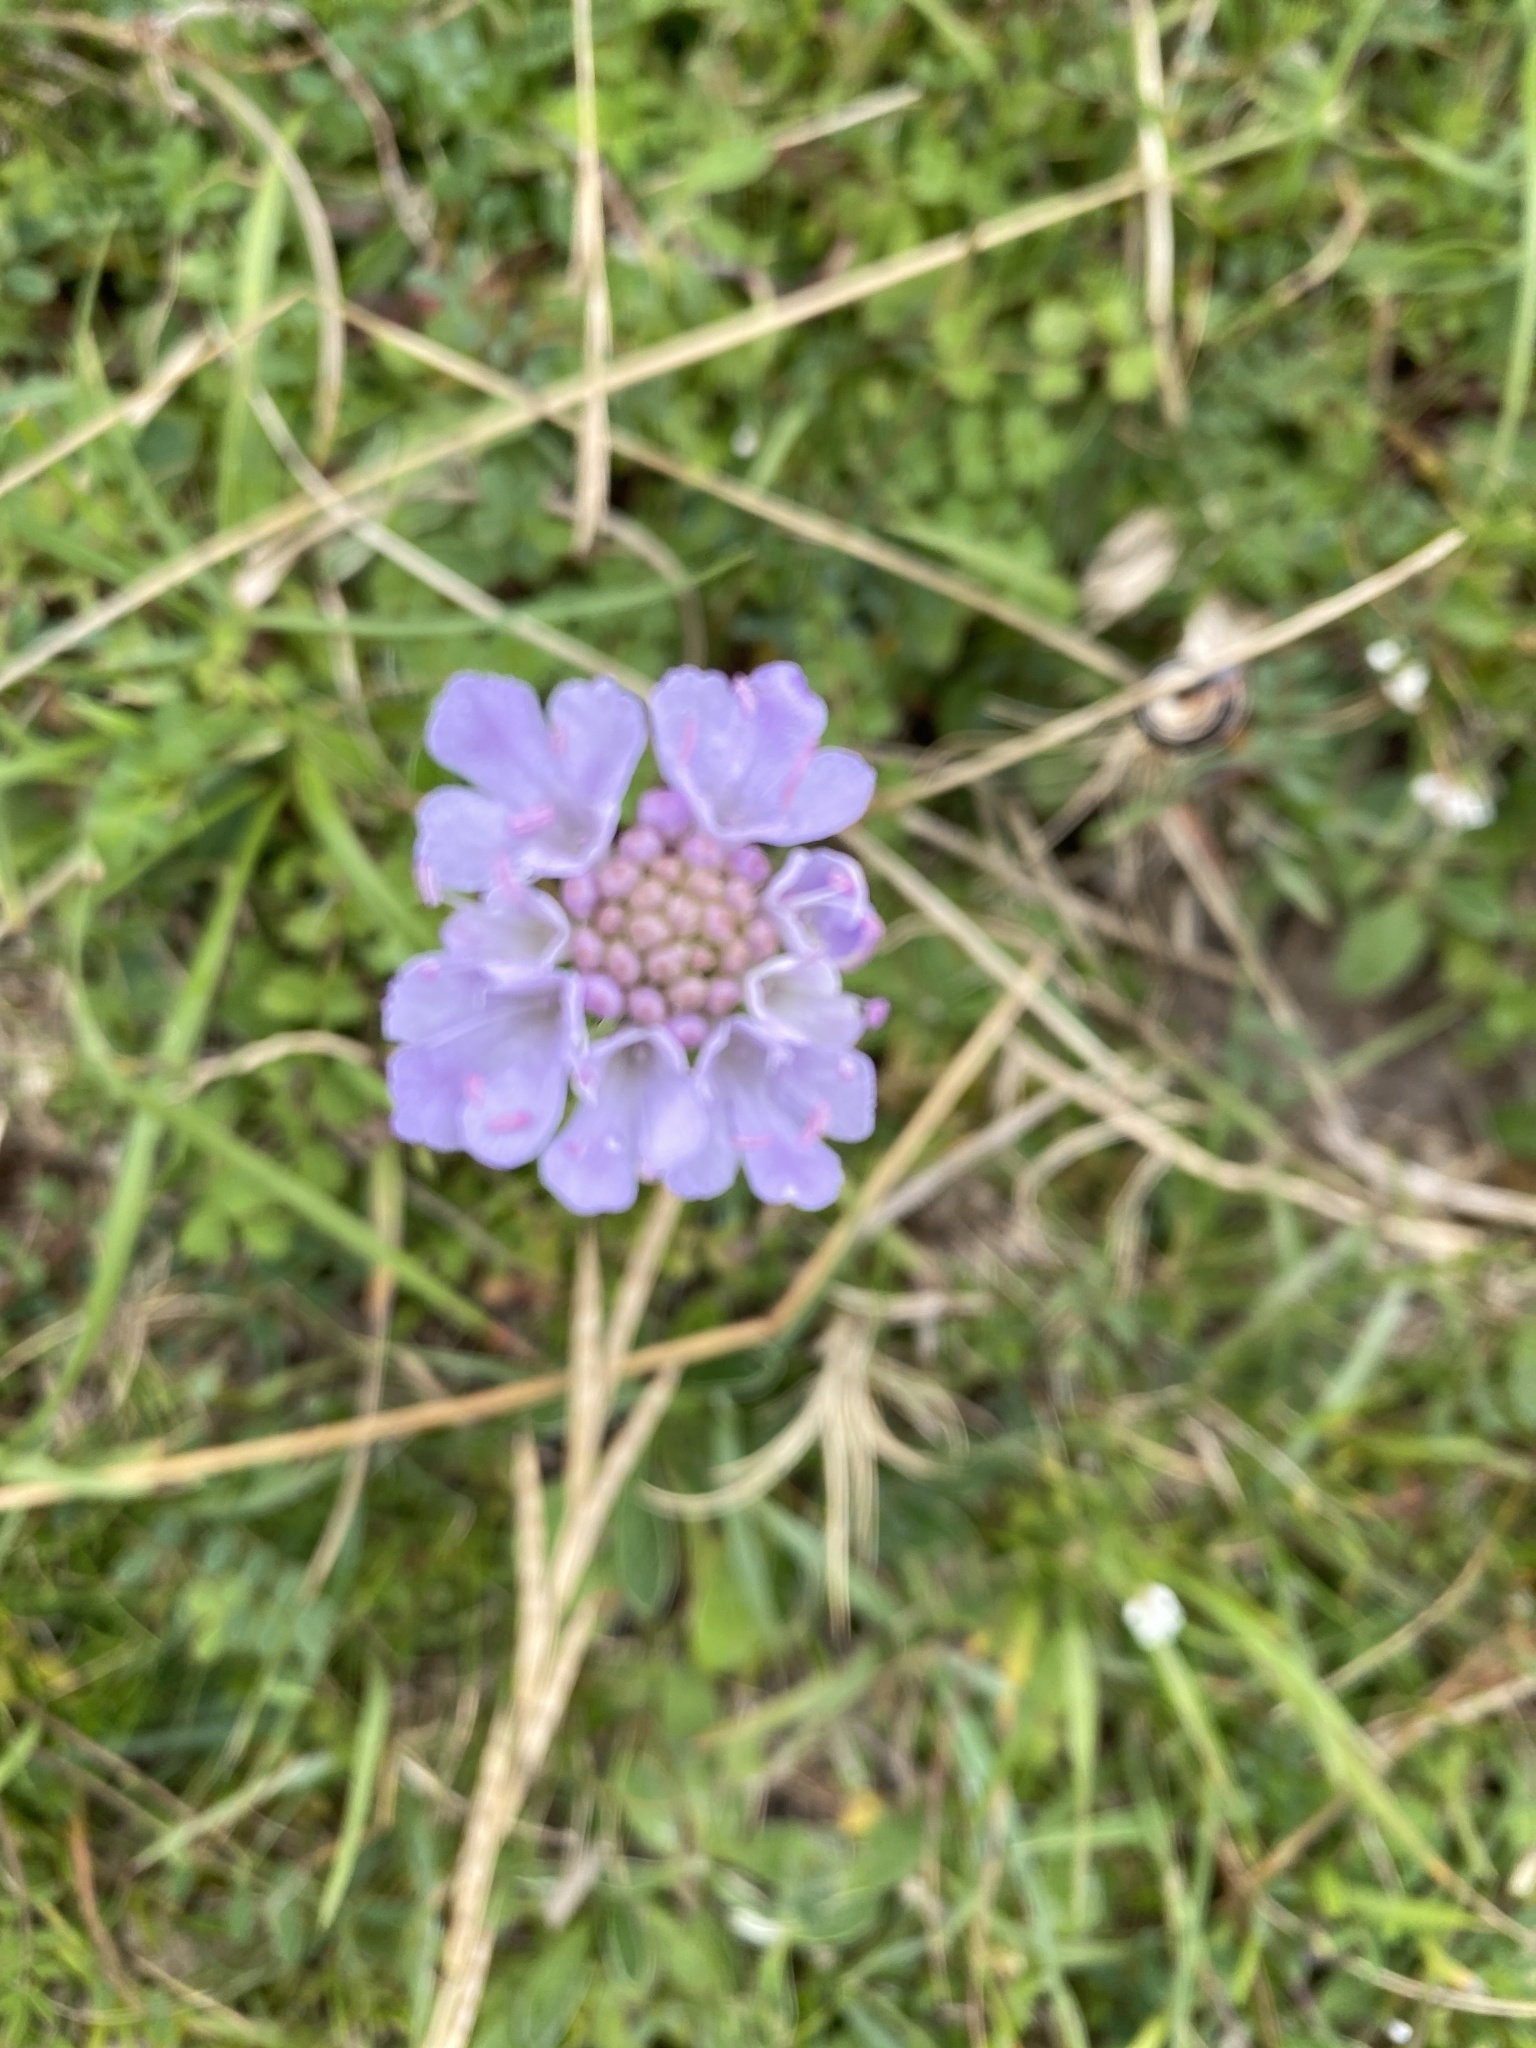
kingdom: Plantae
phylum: Tracheophyta
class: Magnoliopsida
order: Dipsacales
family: Caprifoliaceae
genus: Scabiosa
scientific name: Scabiosa columbaria
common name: Small scabious
